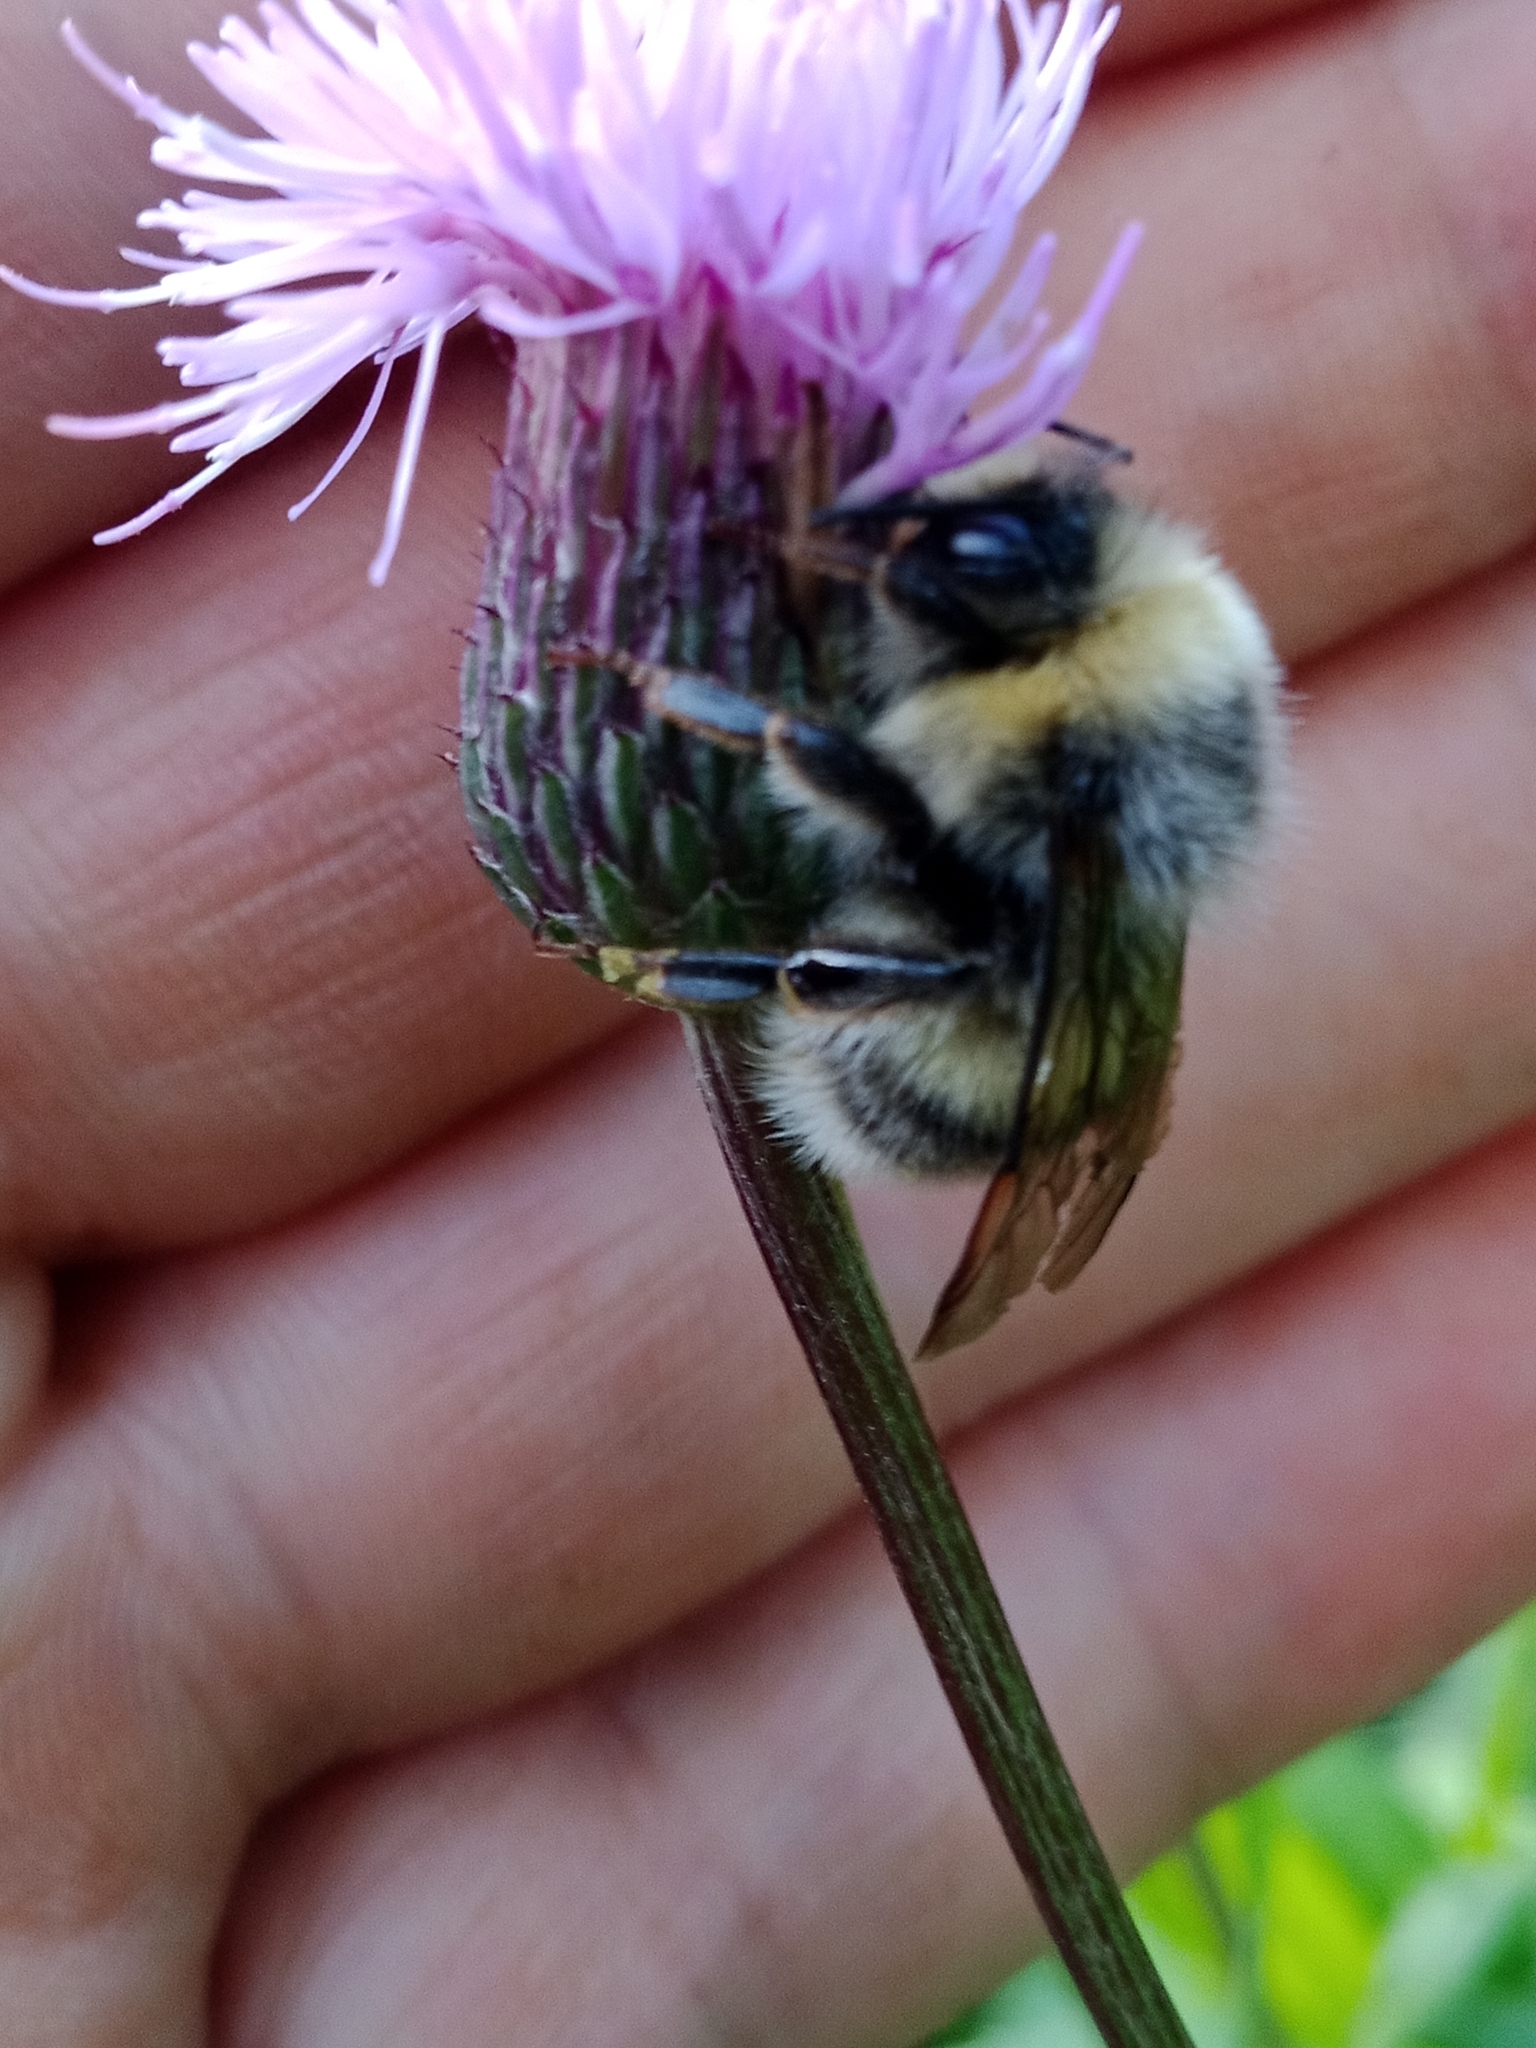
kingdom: Animalia
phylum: Arthropoda
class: Insecta
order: Hymenoptera
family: Apidae
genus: Bombus
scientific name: Bombus lucorum
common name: White-tailed bumblebee
